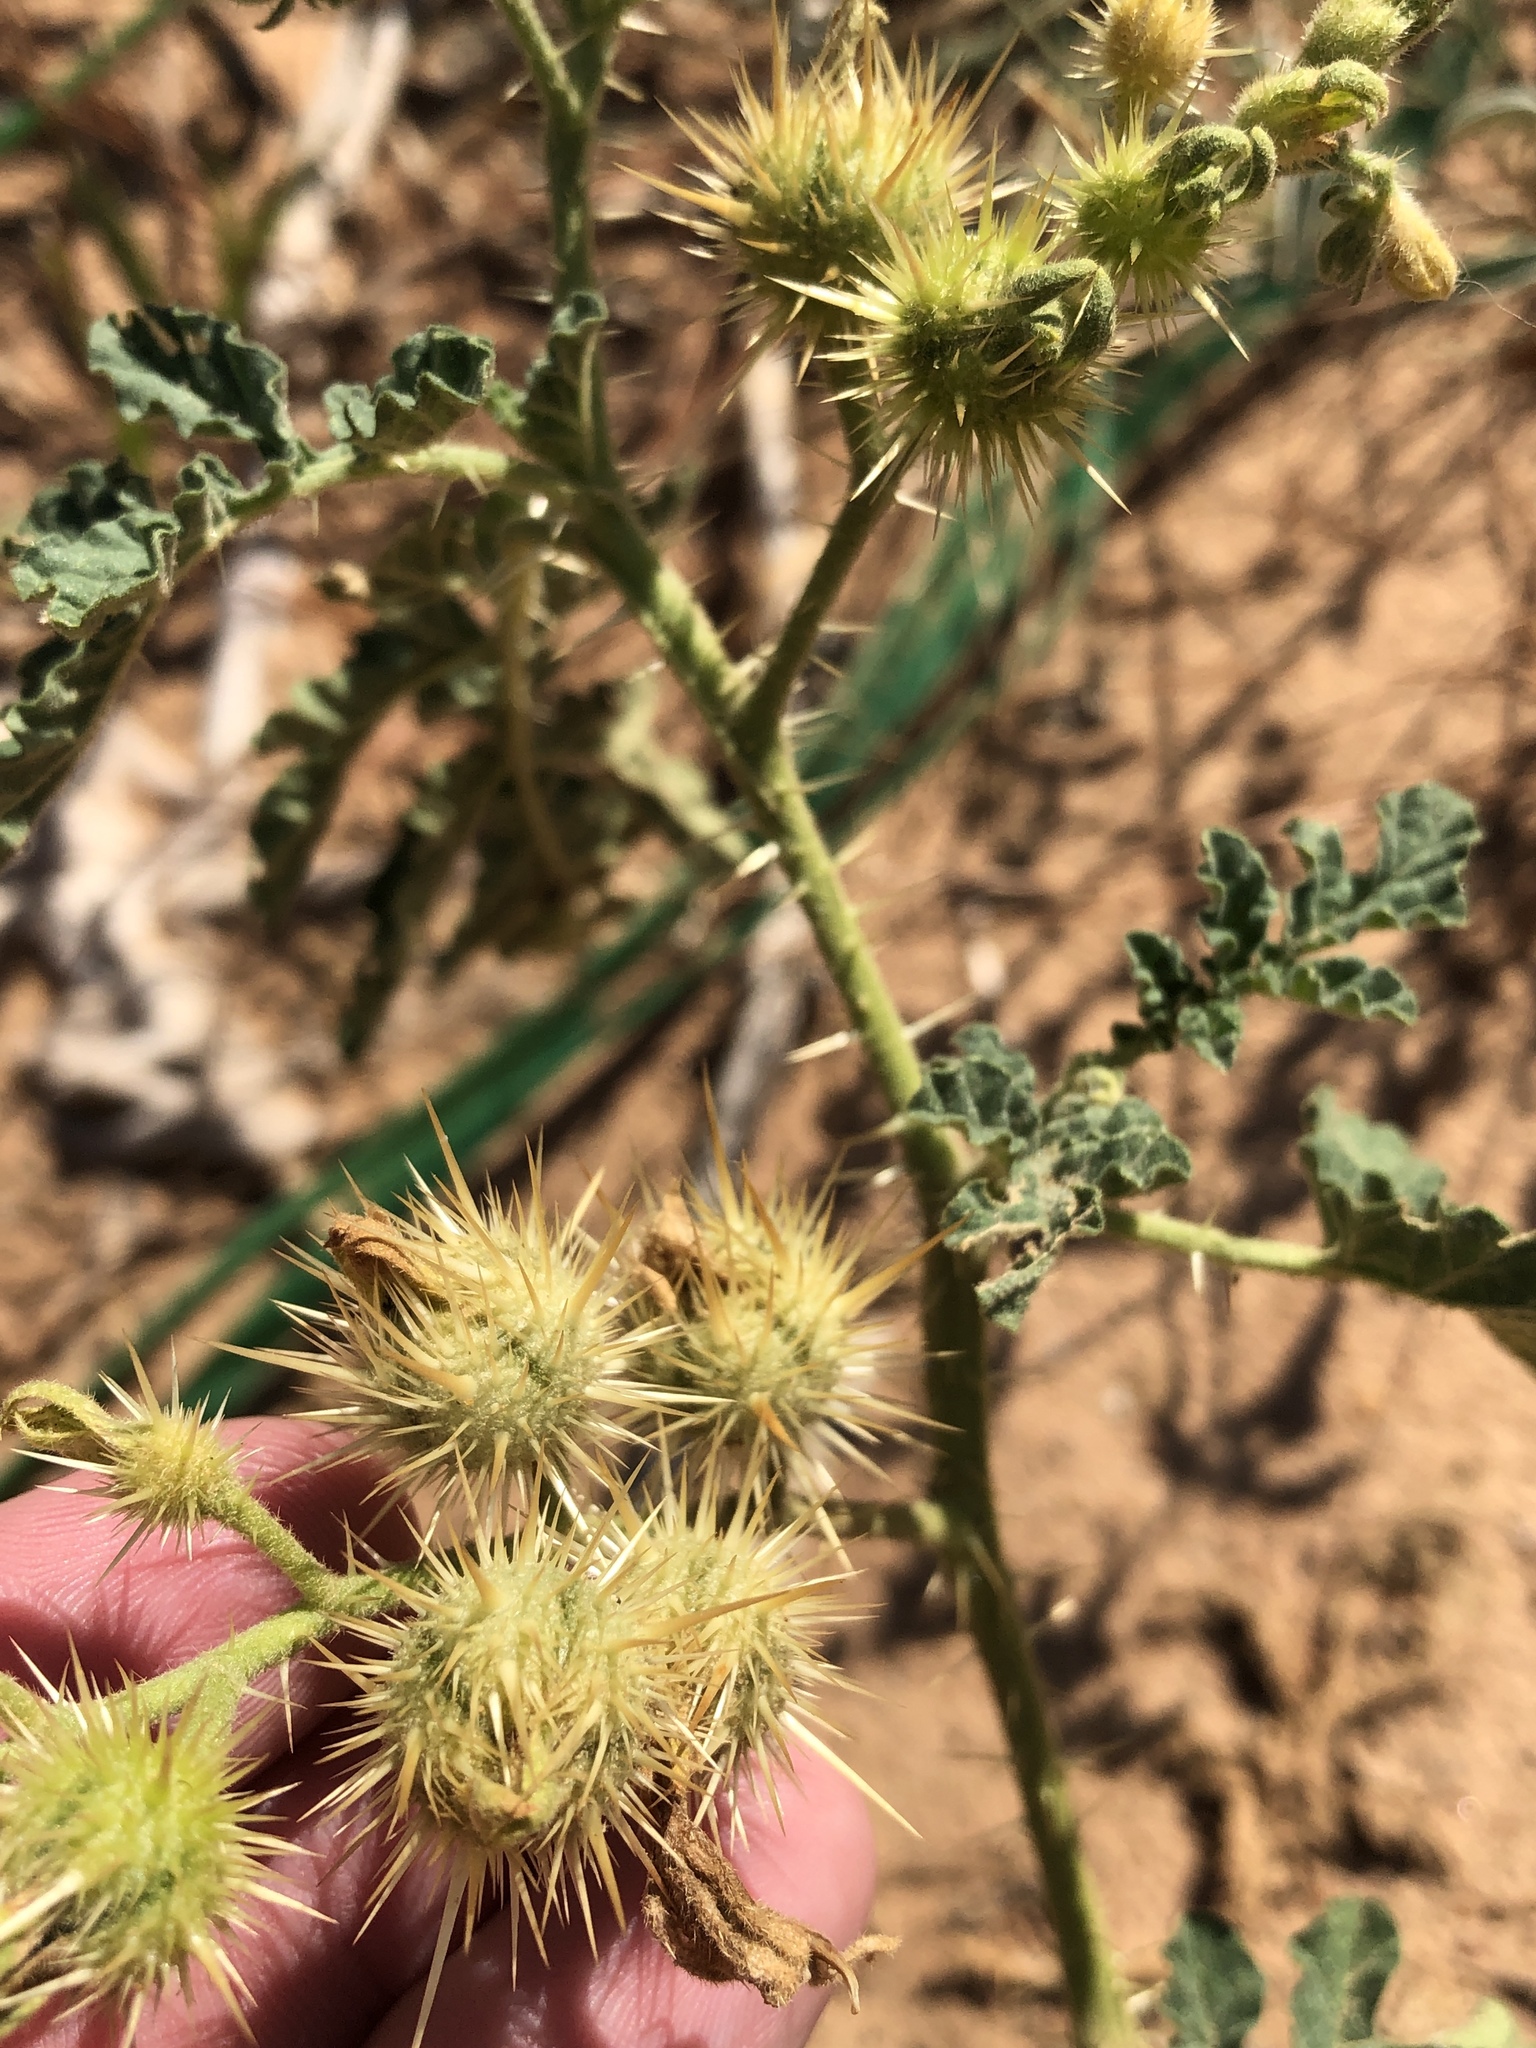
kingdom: Plantae
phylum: Tracheophyta
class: Magnoliopsida
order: Solanales
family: Solanaceae
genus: Solanum
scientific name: Solanum angustifolium
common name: Buffalobur nightshade
